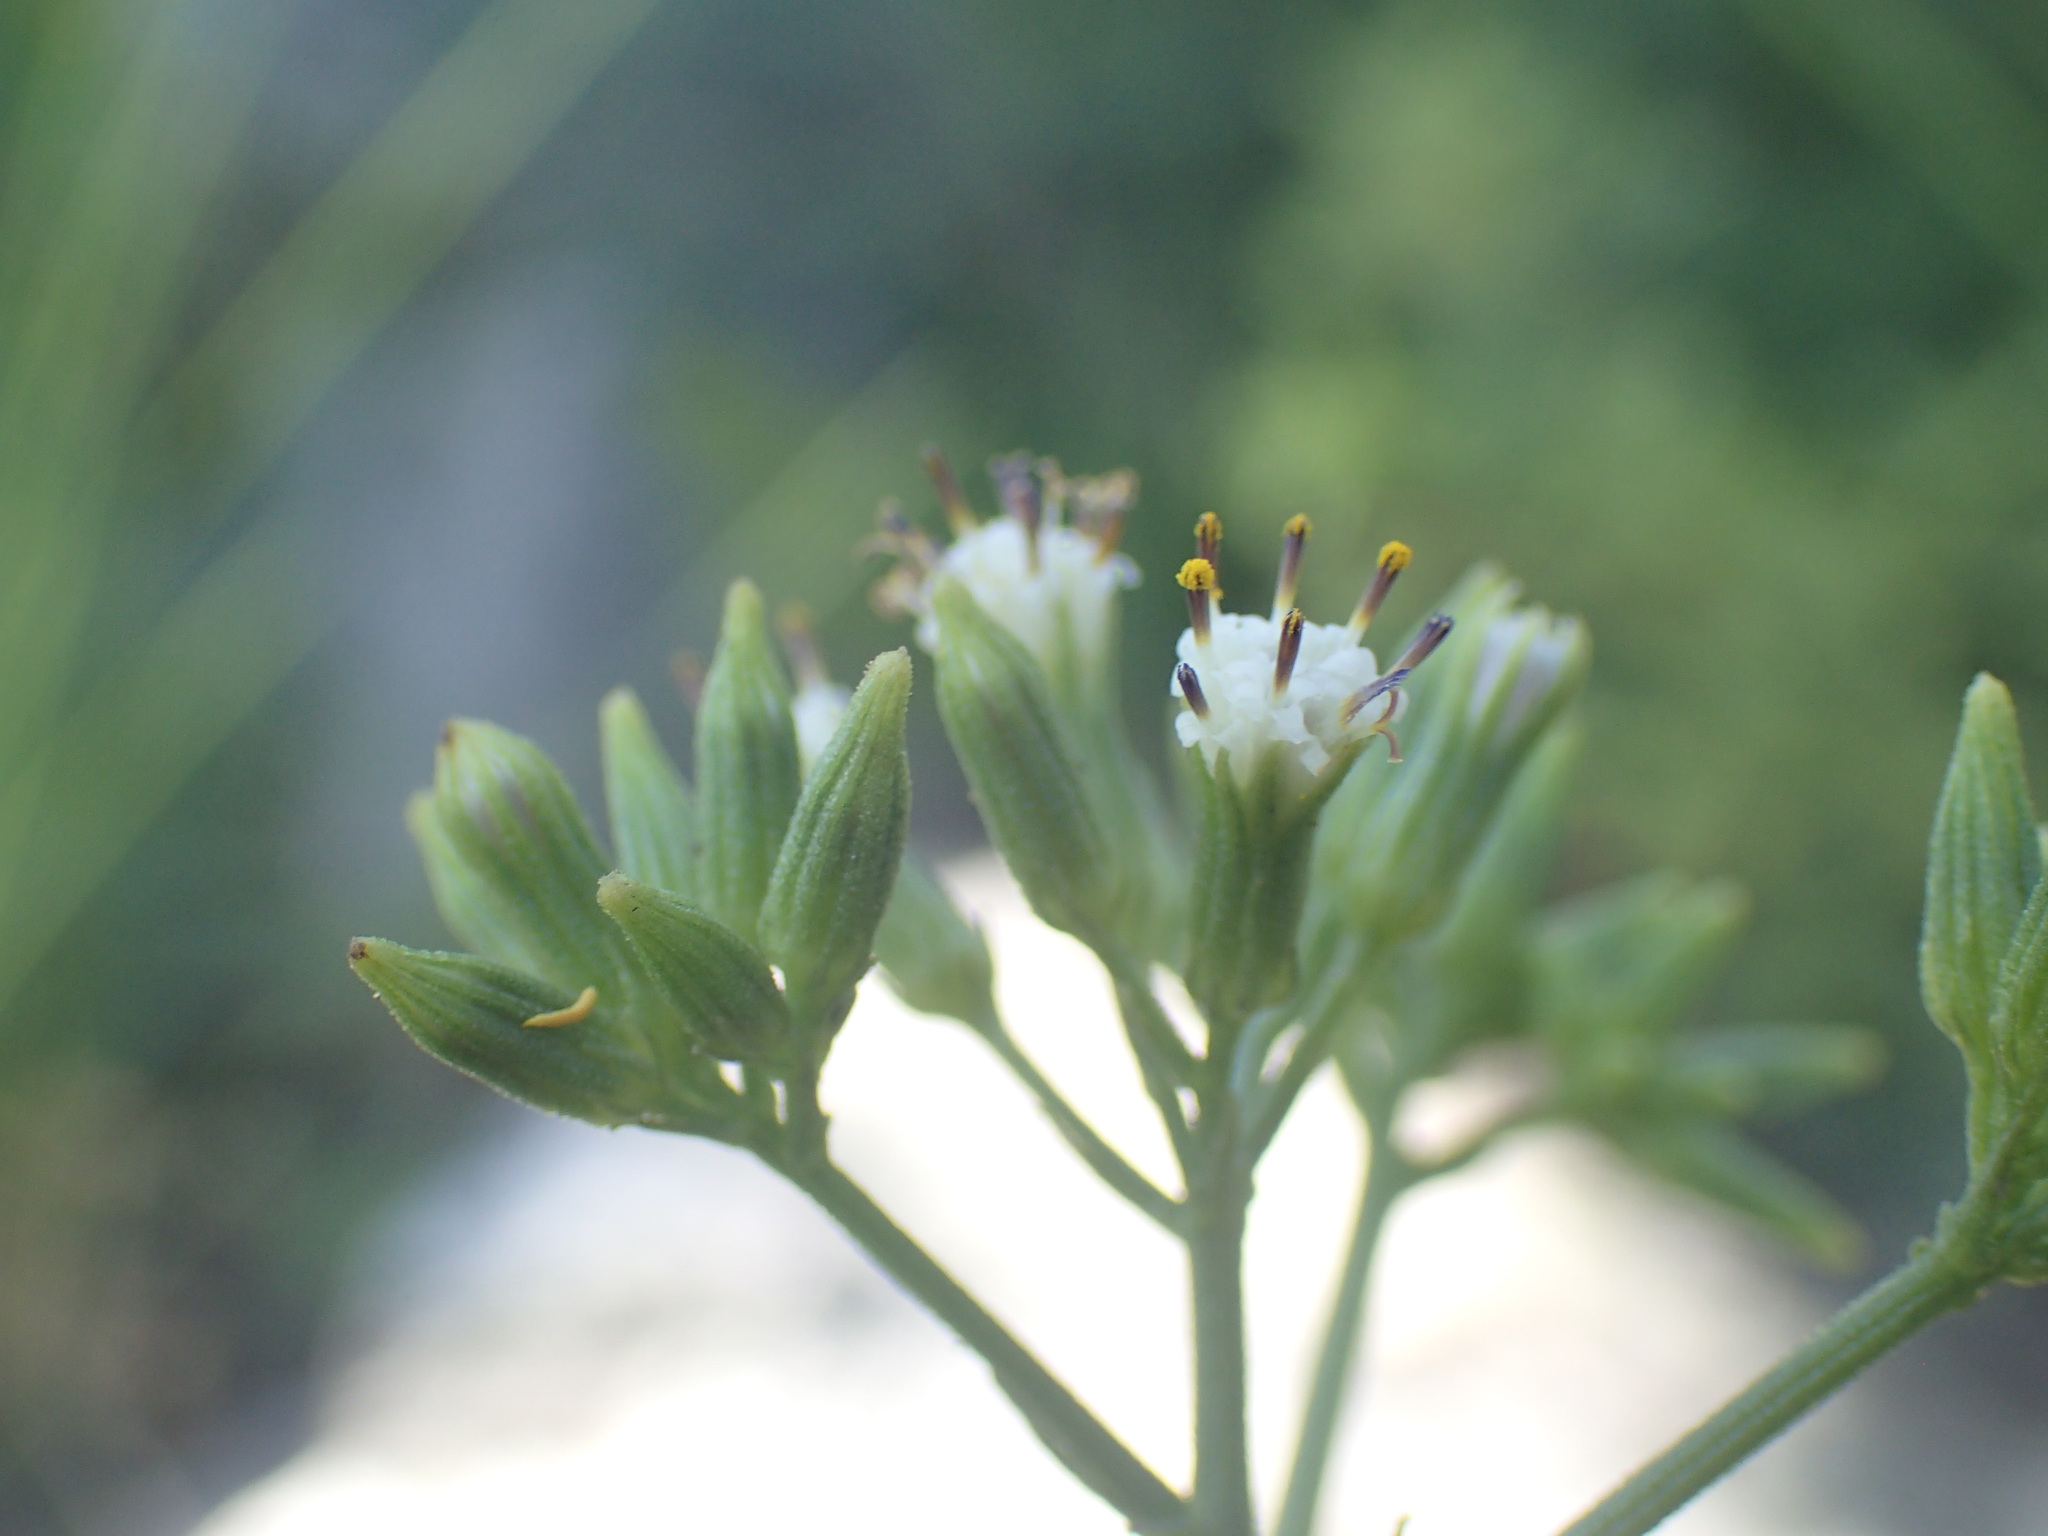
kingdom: Plantae
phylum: Tracheophyta
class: Magnoliopsida
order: Asterales
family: Asteraceae
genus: Senecio
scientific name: Senecio rhyncholaenus
